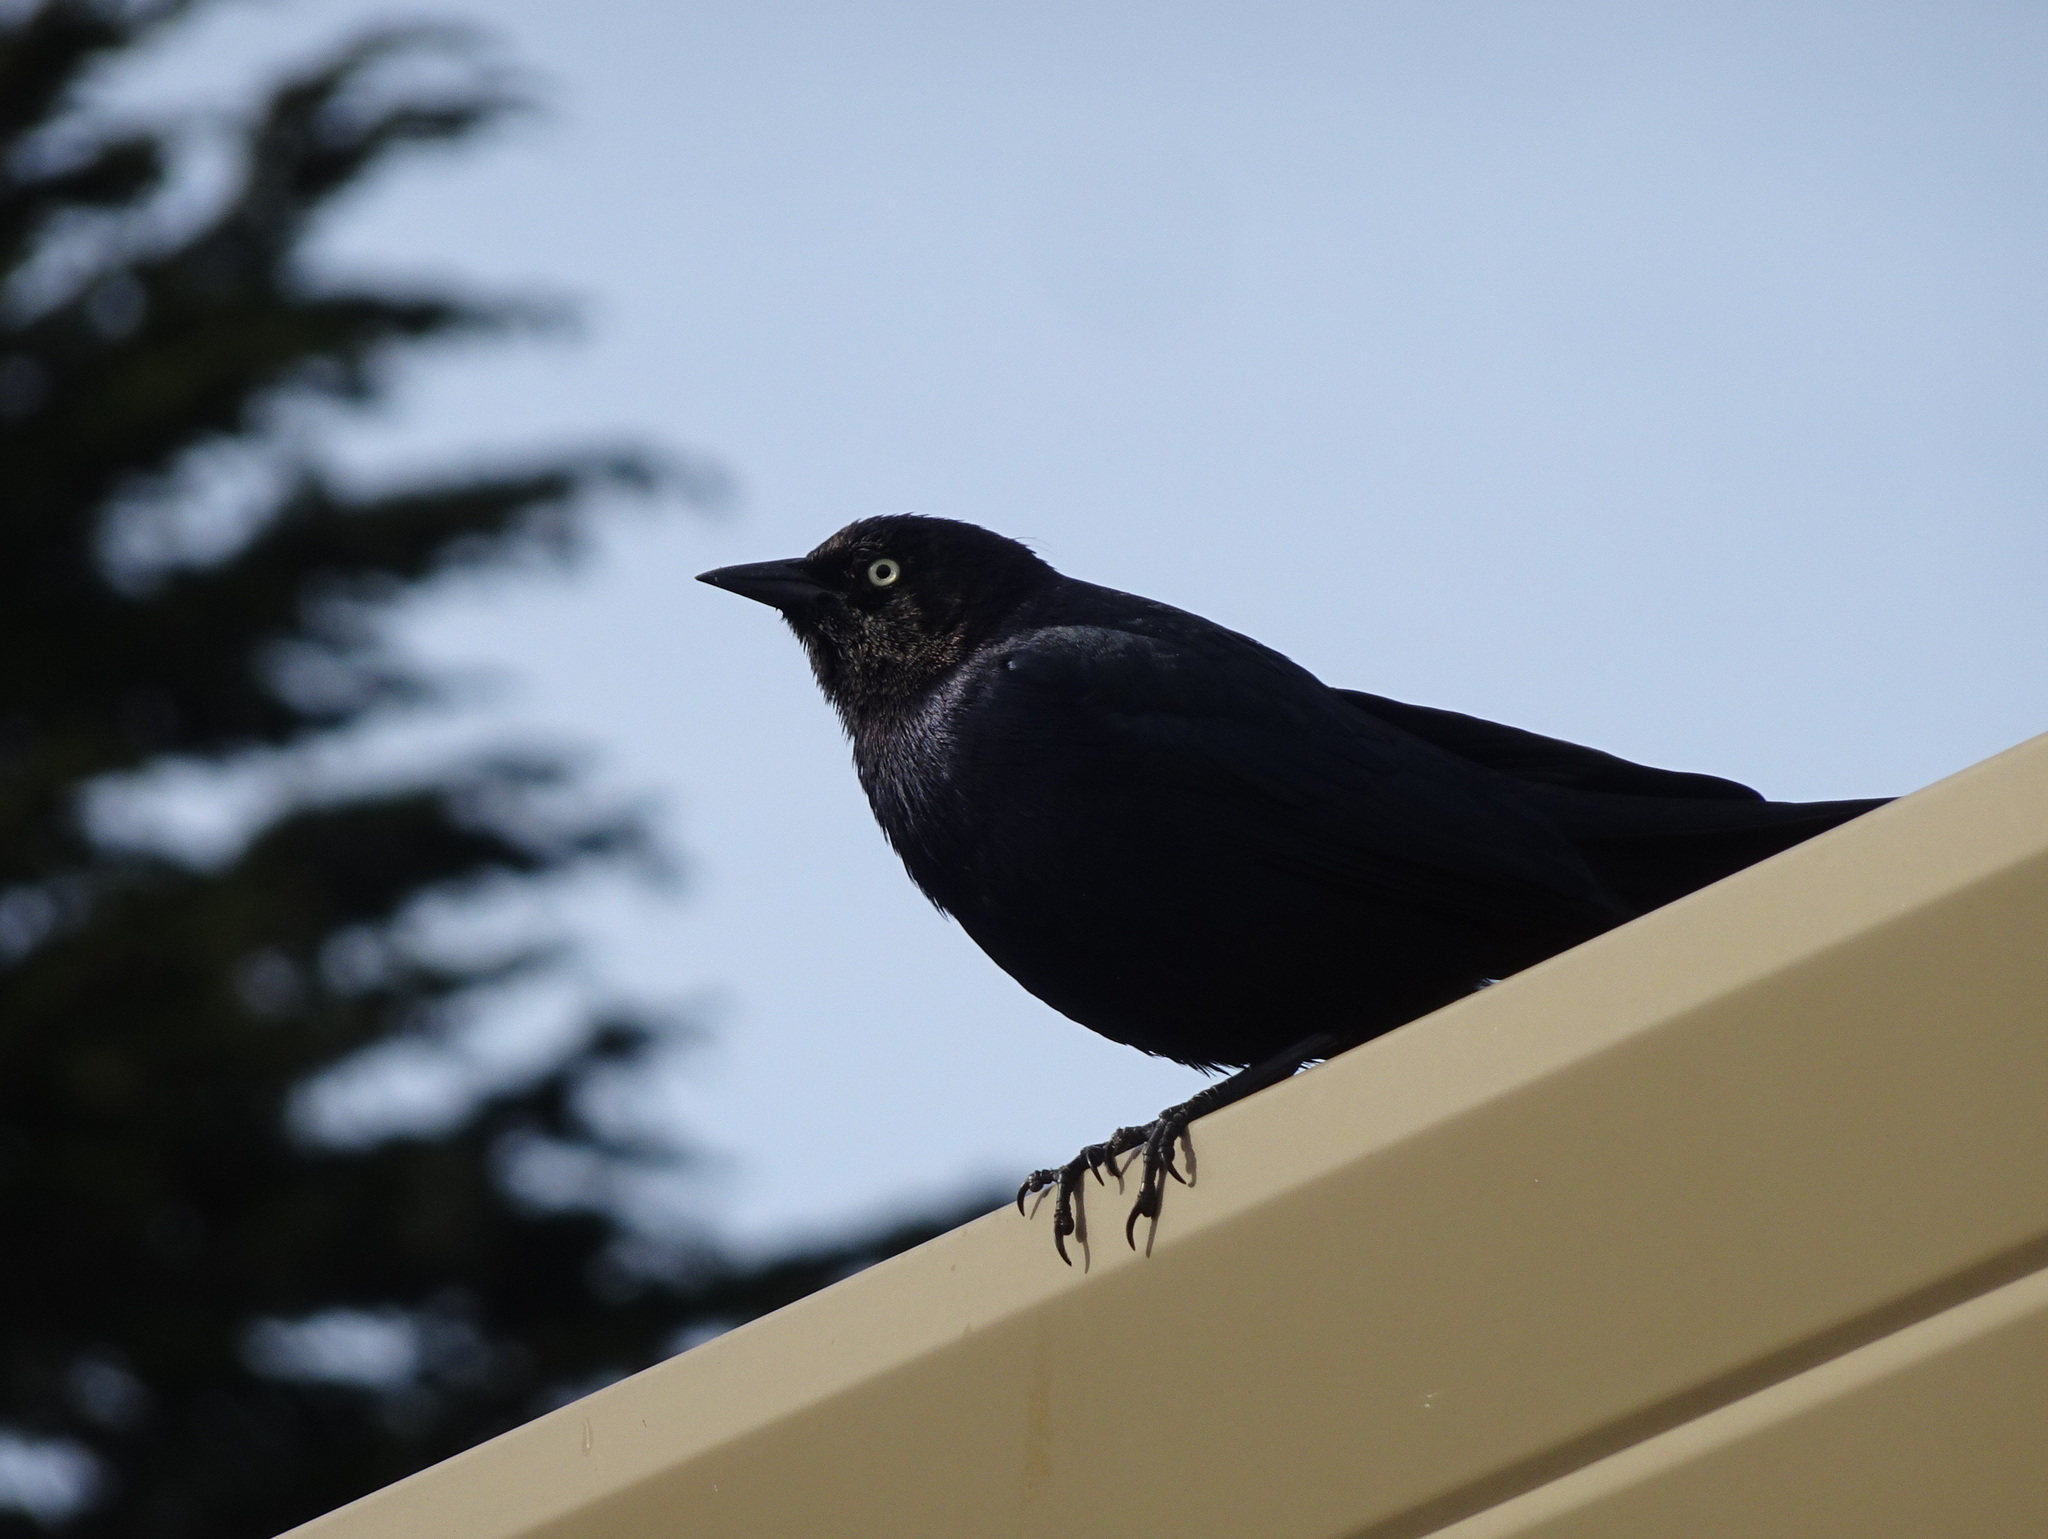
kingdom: Animalia
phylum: Chordata
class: Aves
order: Passeriformes
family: Icteridae
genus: Euphagus
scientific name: Euphagus cyanocephalus
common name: Brewer's blackbird
